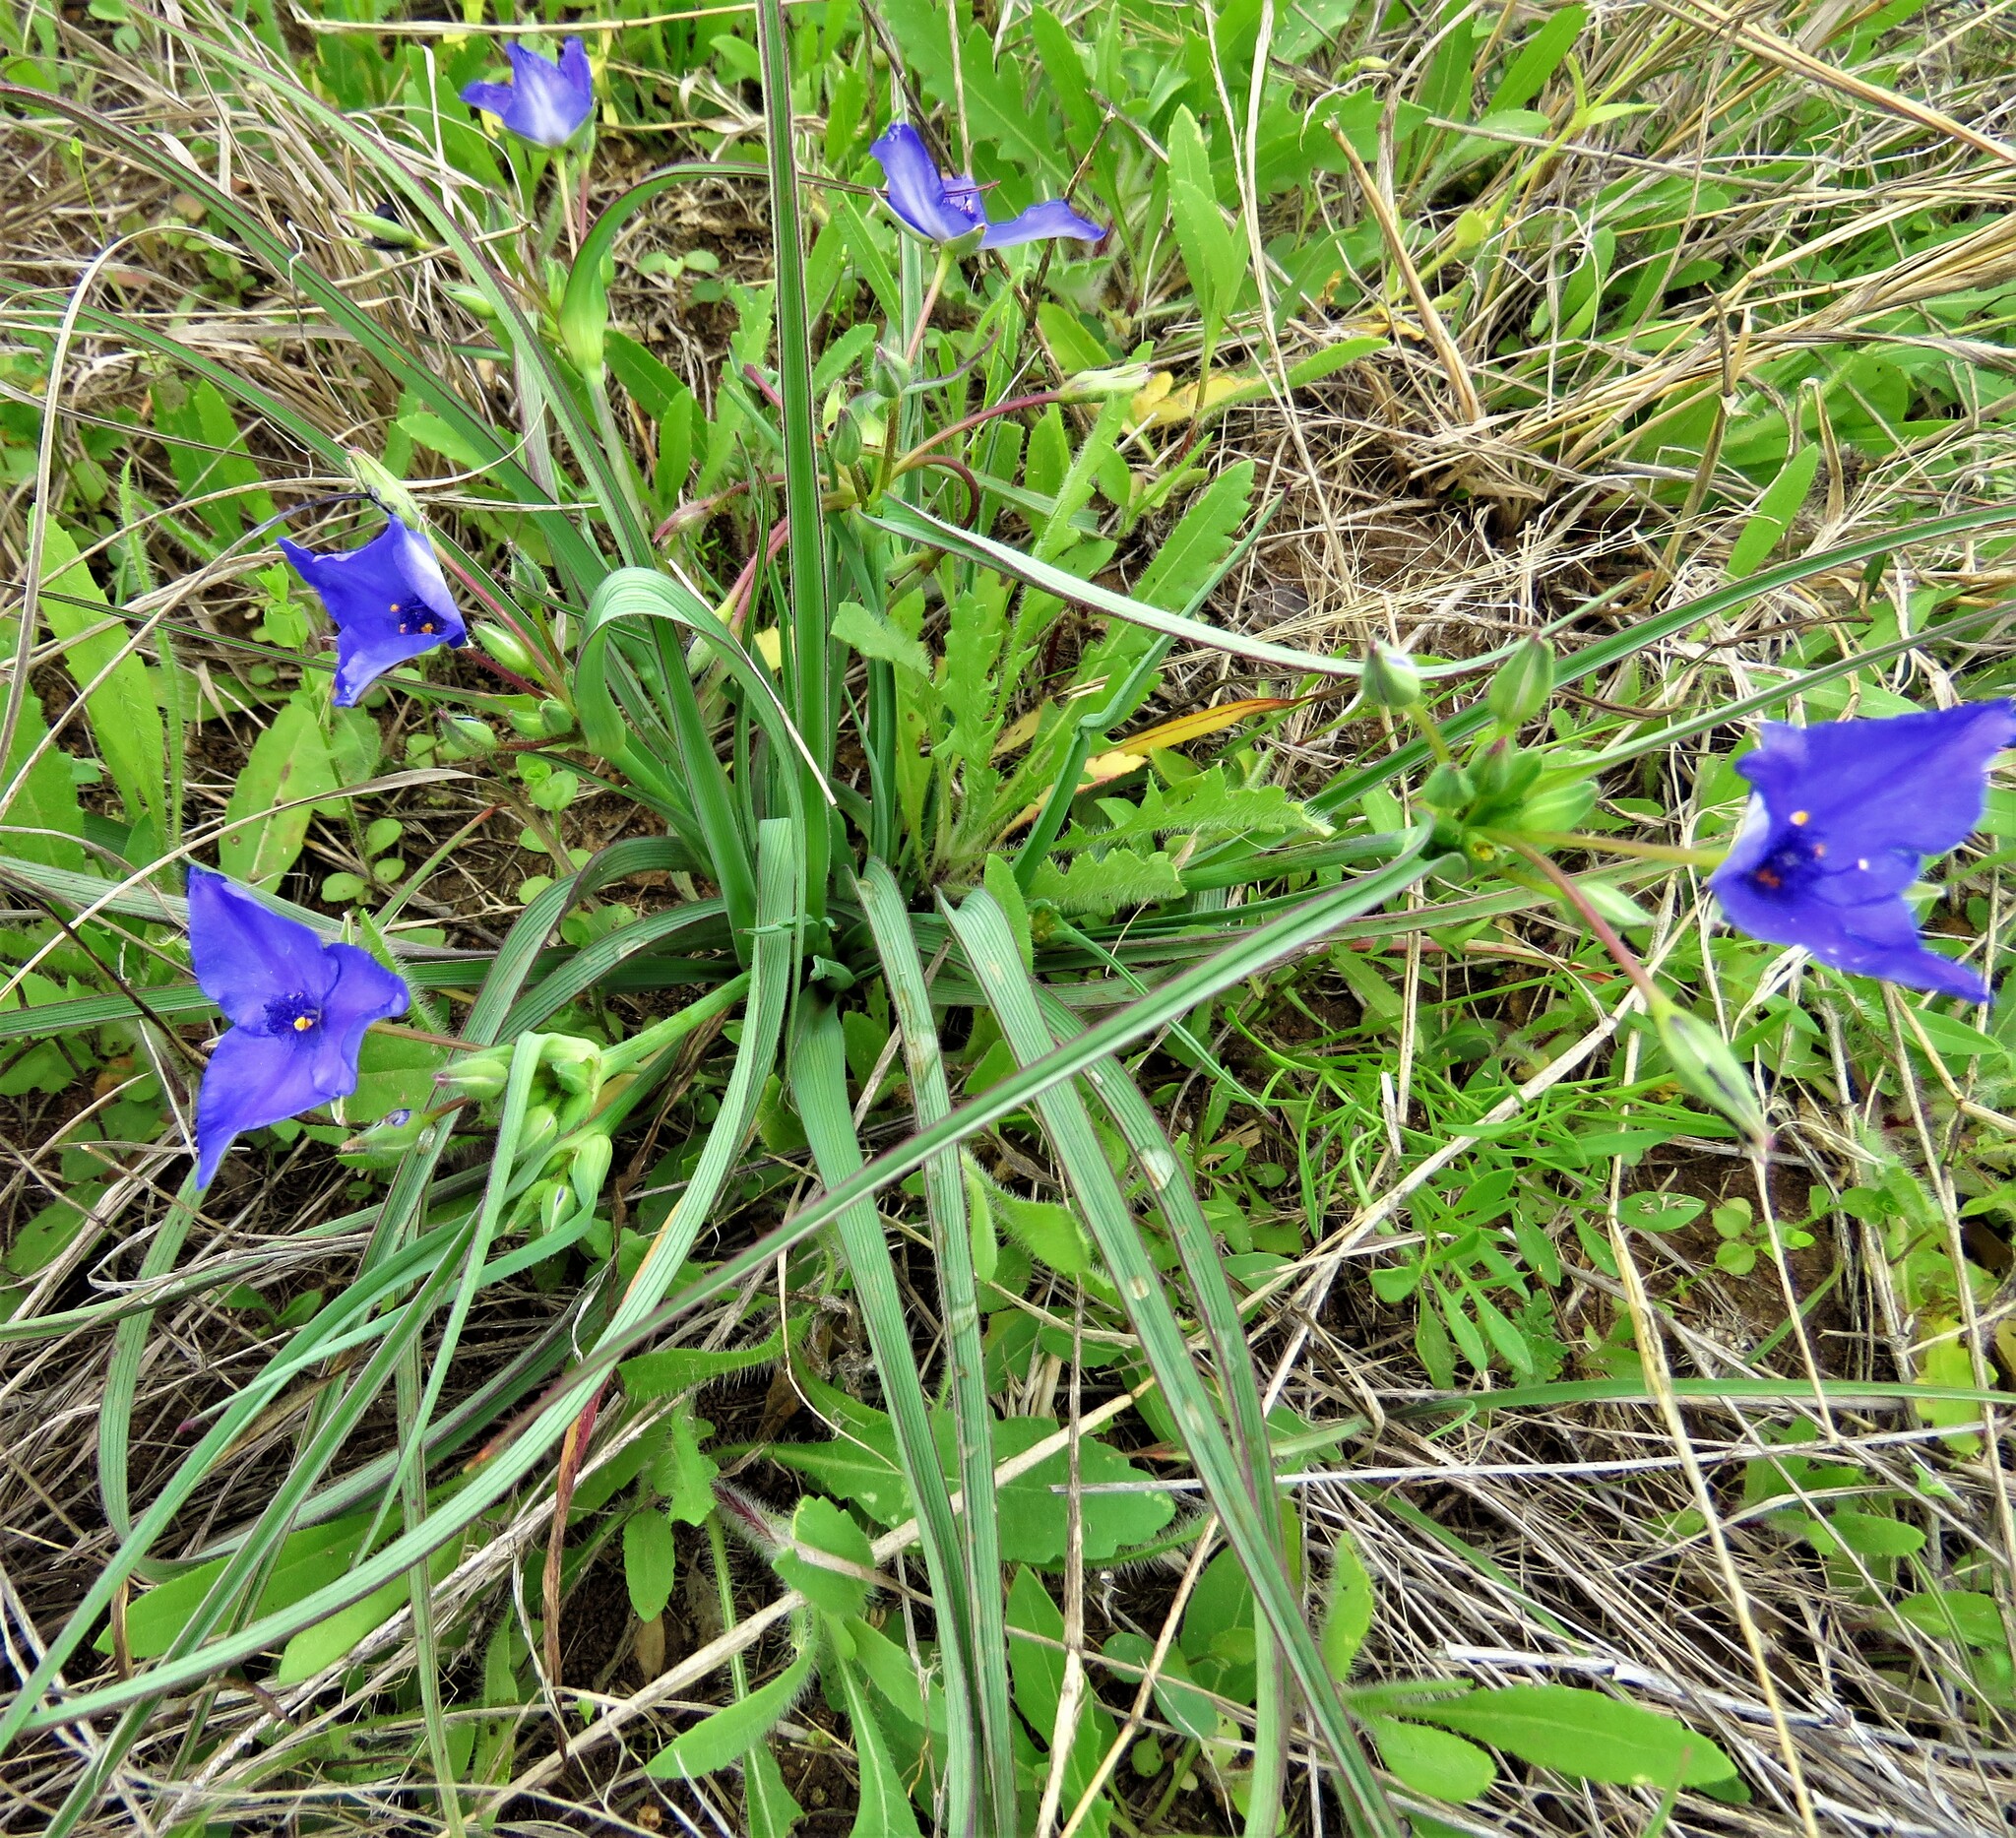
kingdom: Plantae
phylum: Tracheophyta
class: Liliopsida
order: Commelinales
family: Commelinaceae
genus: Tradescantia
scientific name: Tradescantia hirsutiflora
